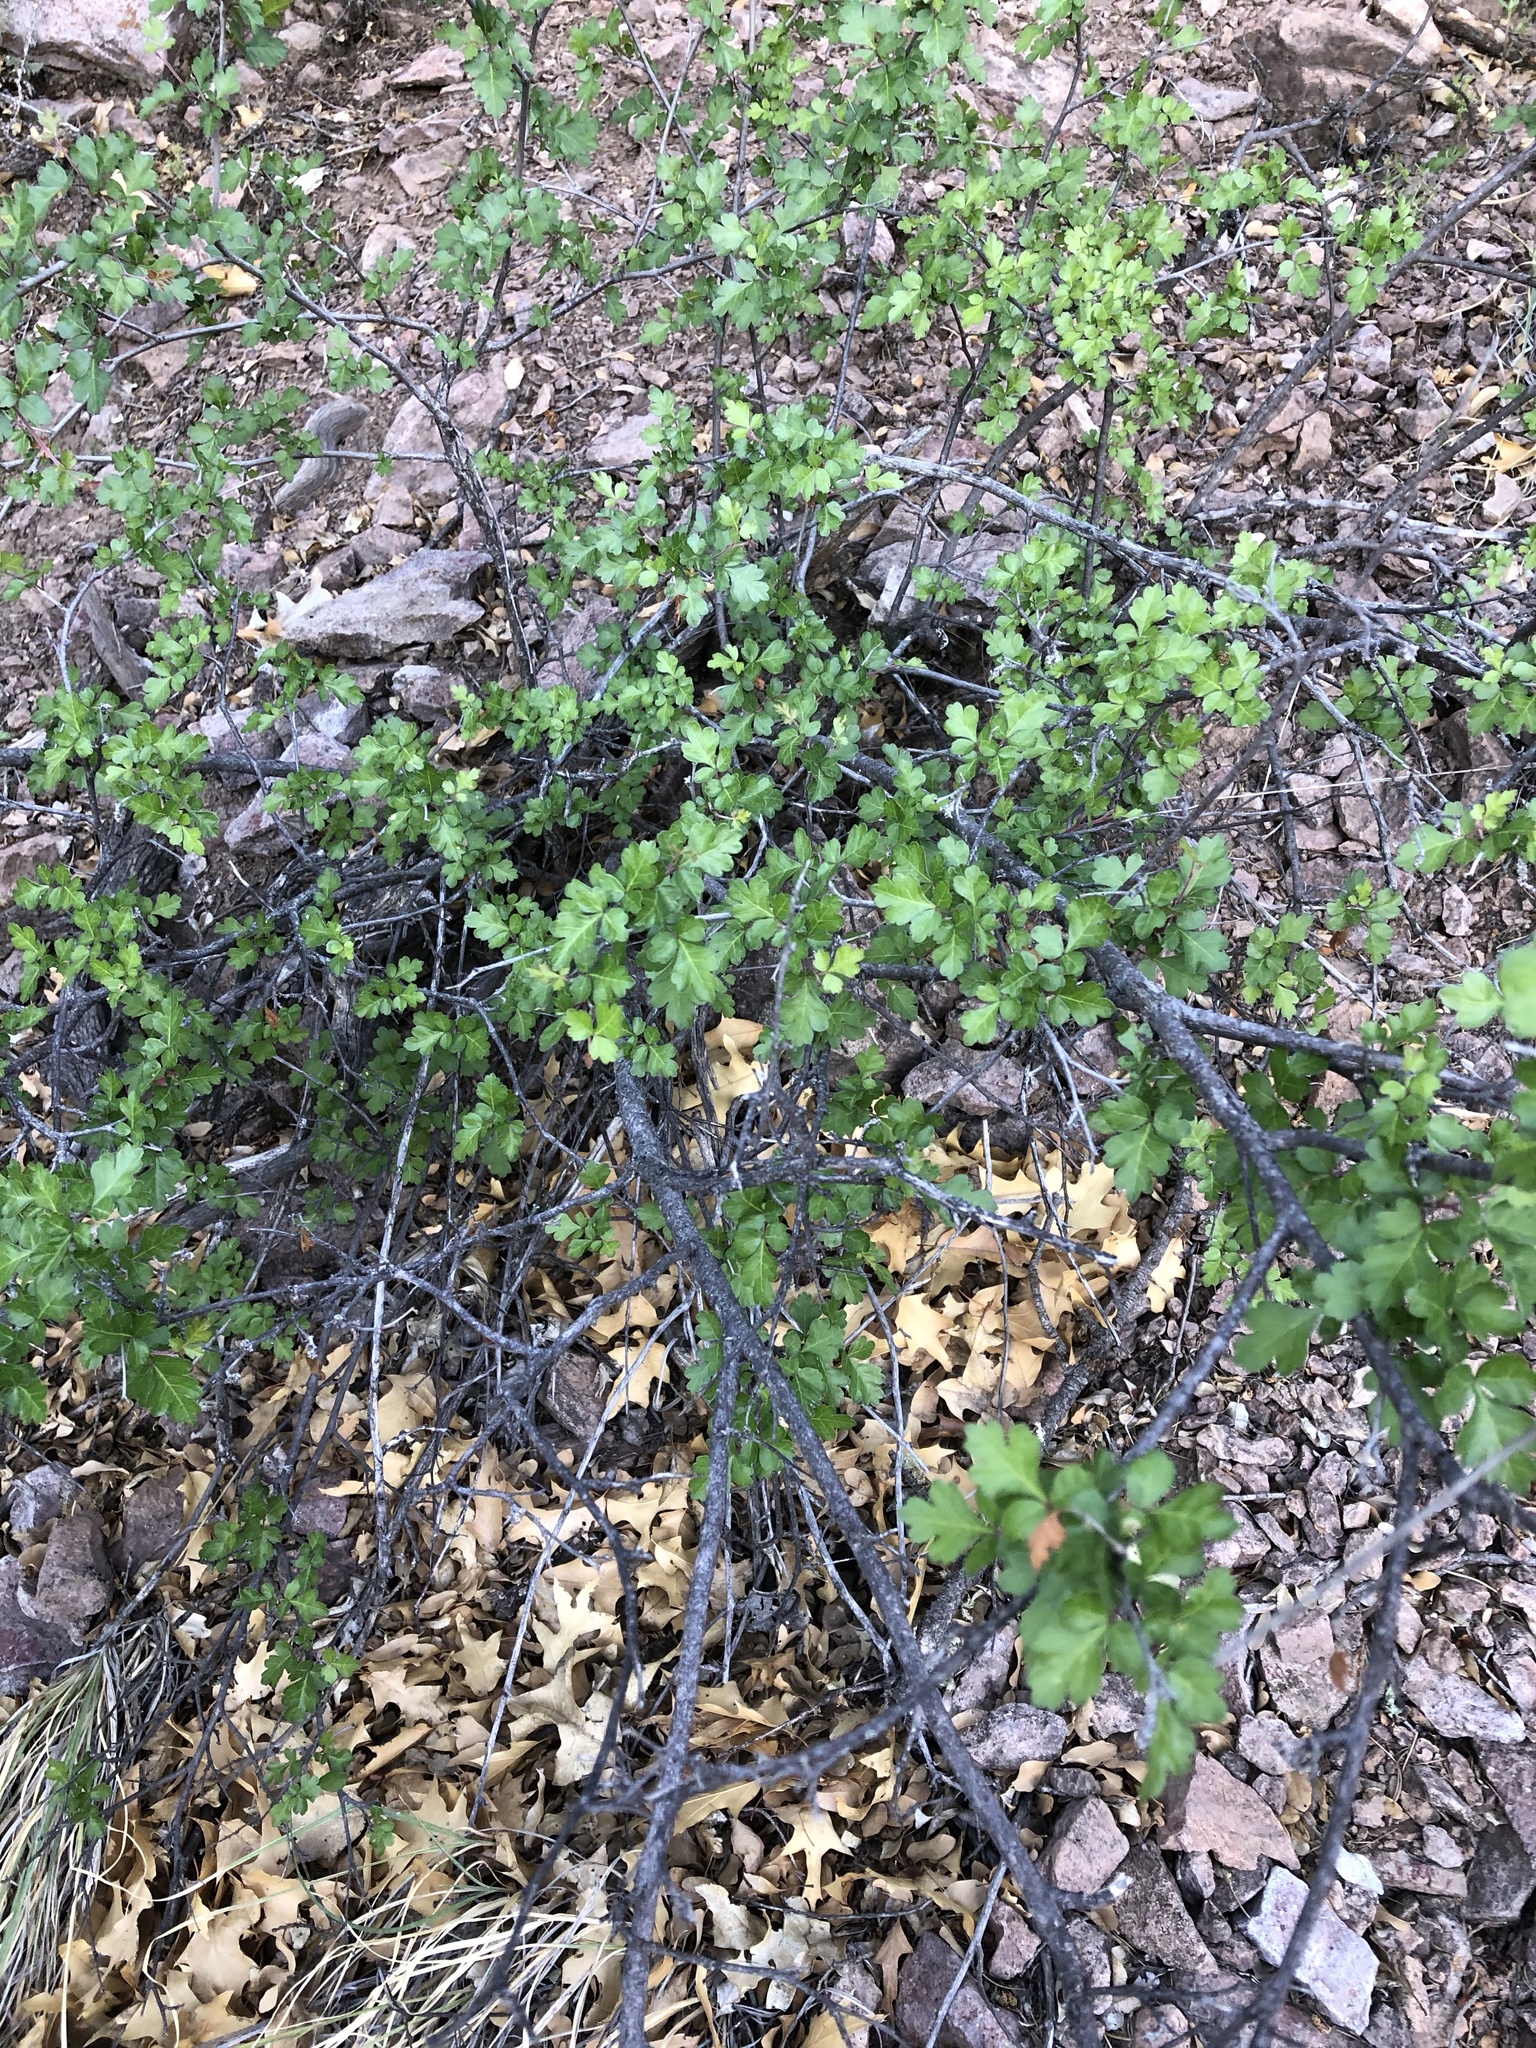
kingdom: Plantae
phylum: Tracheophyta
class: Magnoliopsida
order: Sapindales
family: Anacardiaceae
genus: Rhus
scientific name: Rhus aromatica
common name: Aromatic sumac
